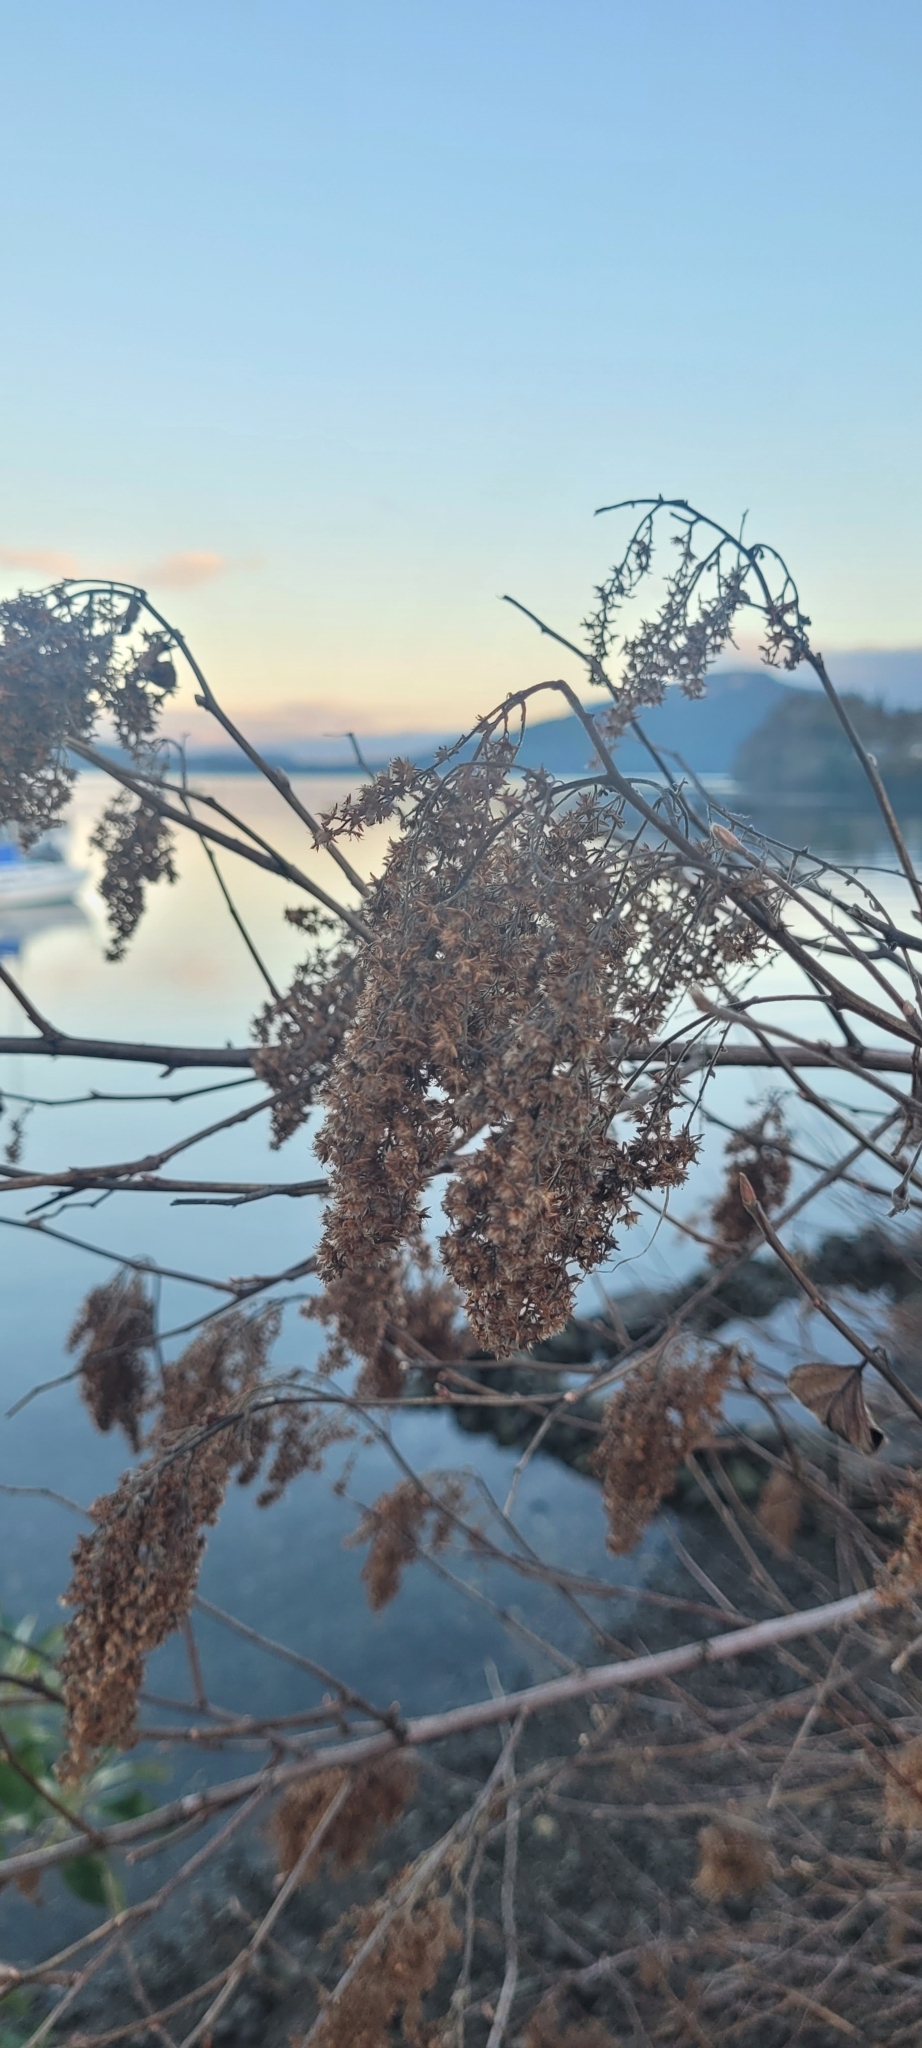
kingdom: Plantae
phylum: Tracheophyta
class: Magnoliopsida
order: Rosales
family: Rosaceae
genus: Holodiscus
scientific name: Holodiscus discolor
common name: Oceanspray
